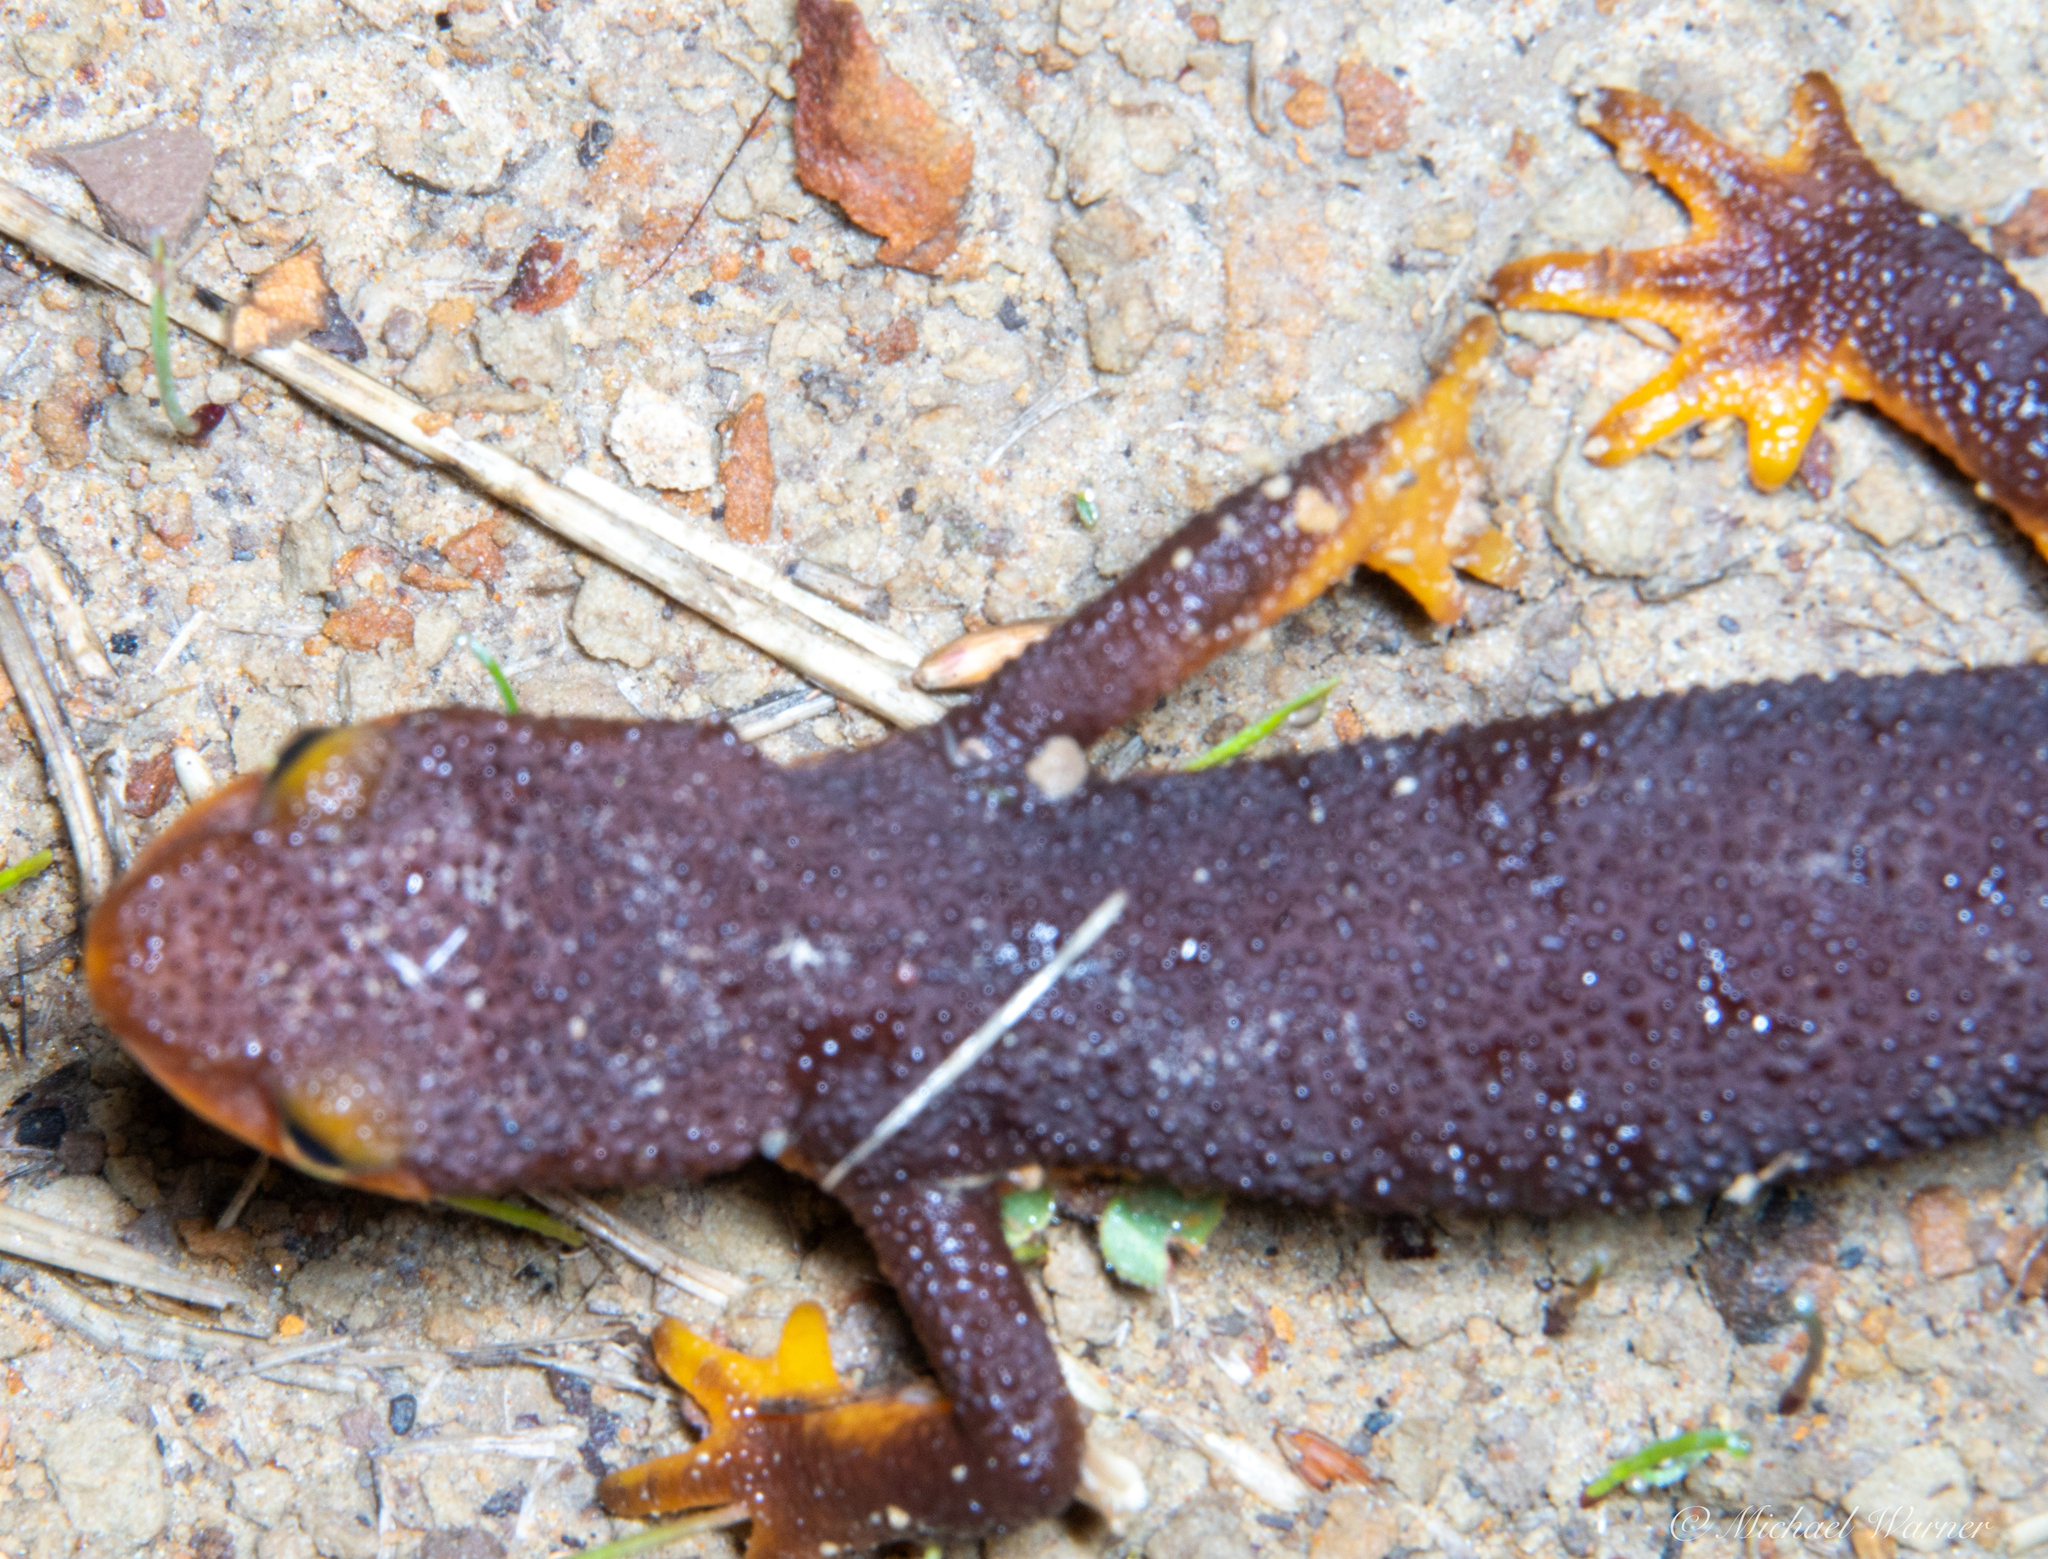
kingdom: Animalia
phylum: Chordata
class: Amphibia
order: Caudata
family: Salamandridae
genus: Taricha
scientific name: Taricha torosa
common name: California newt
